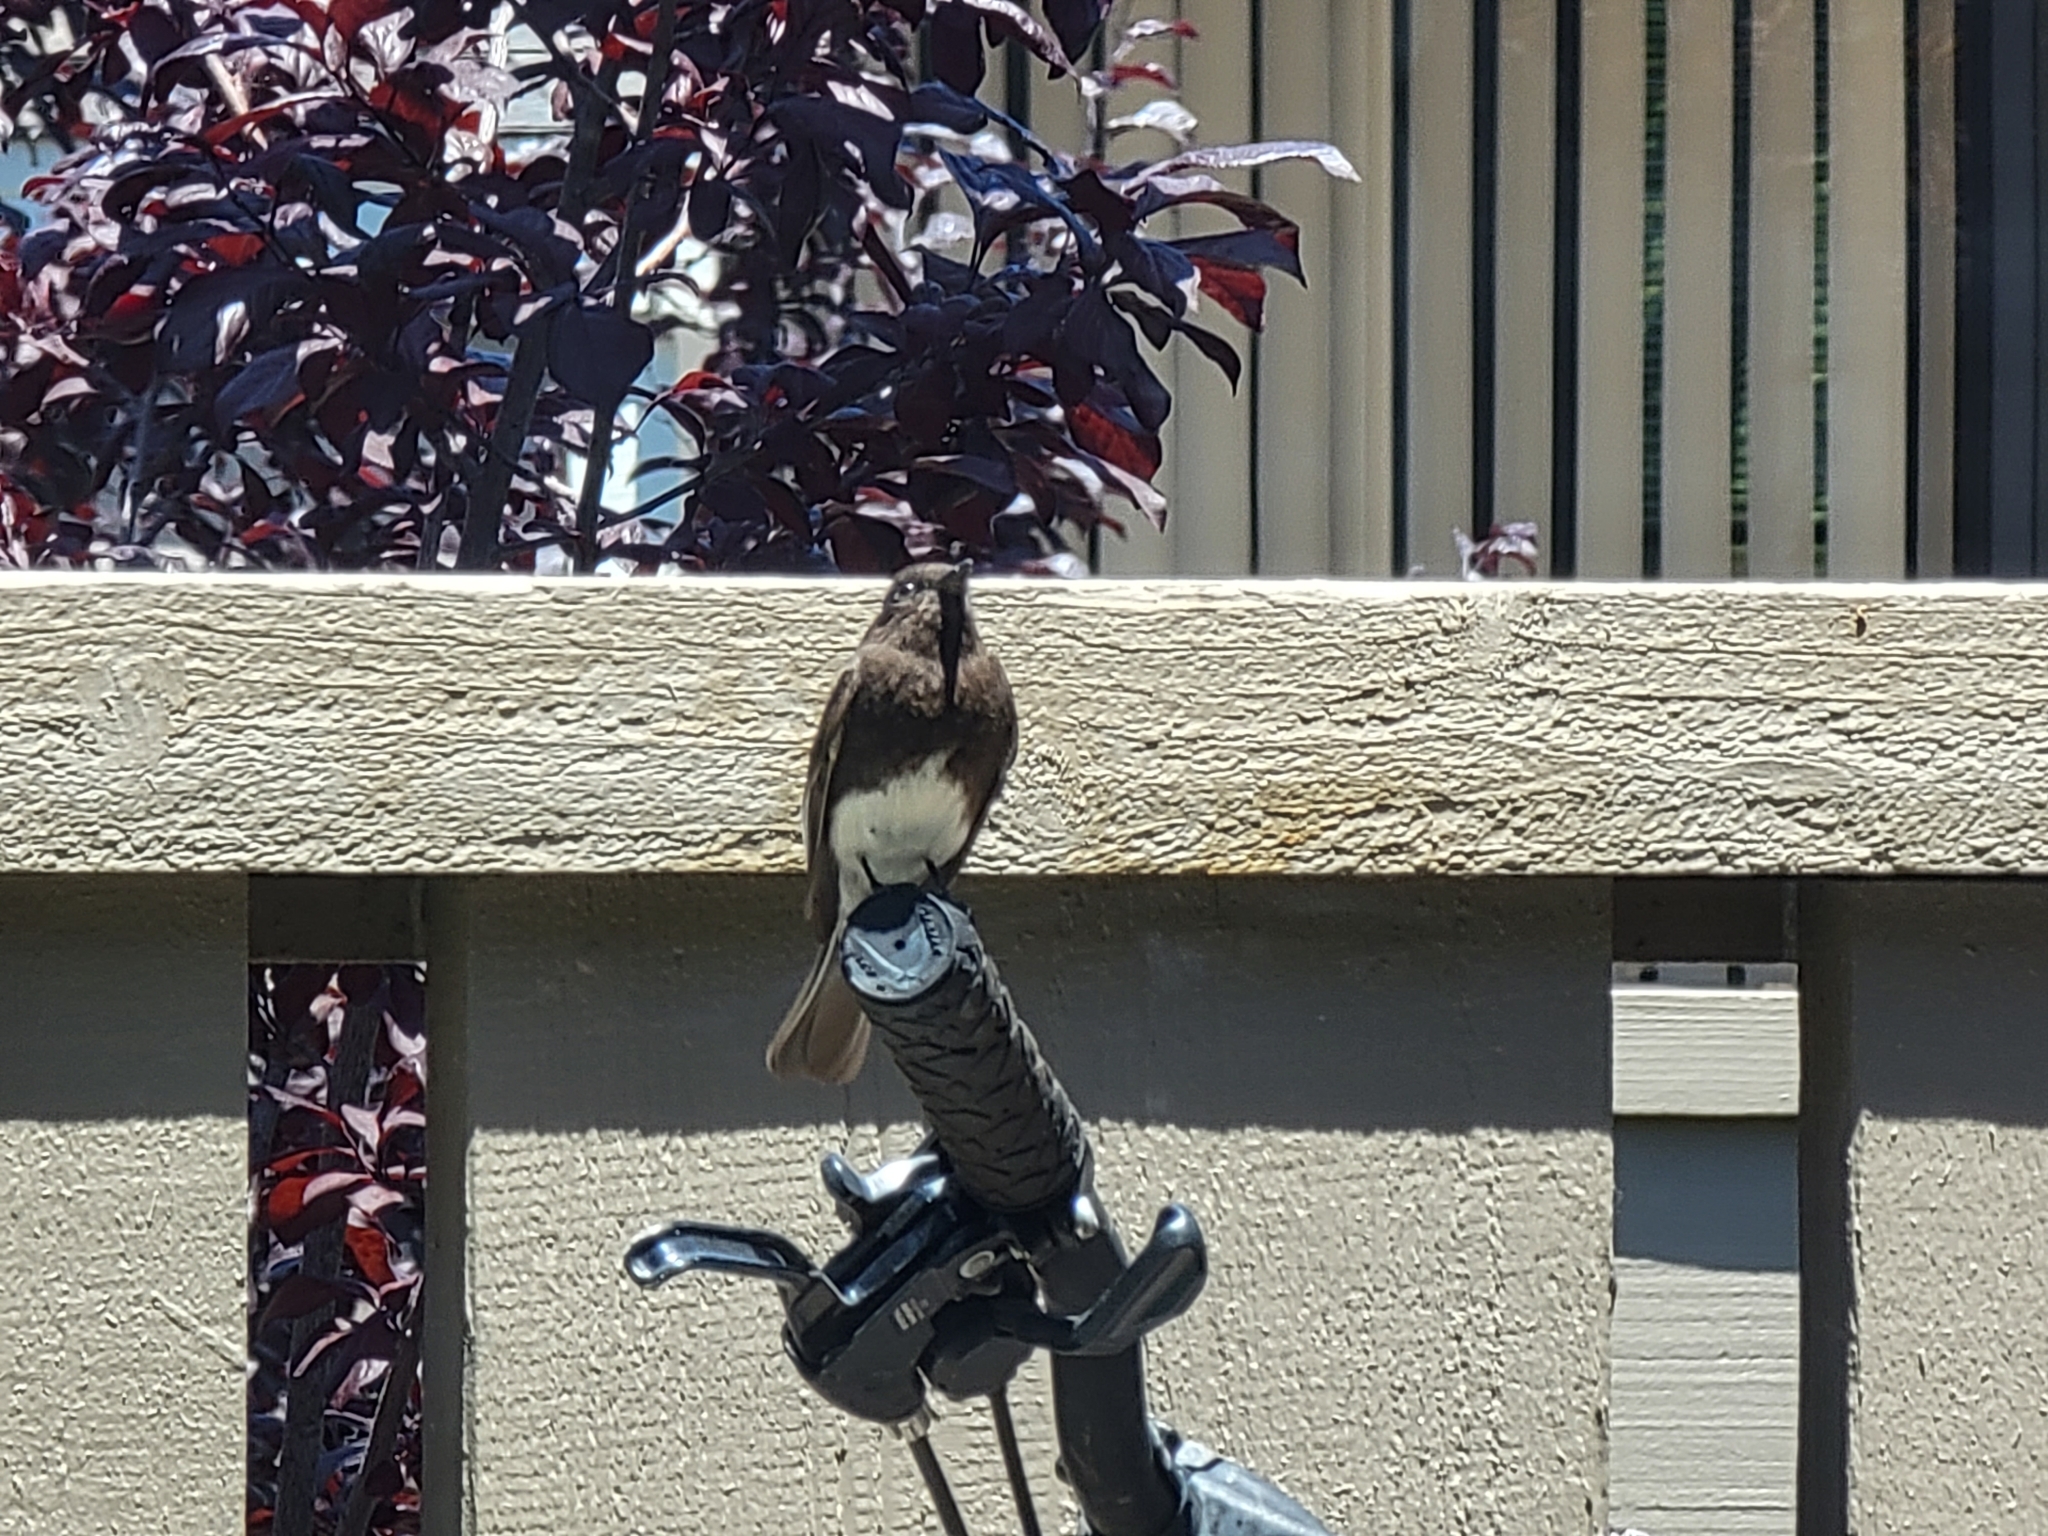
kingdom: Animalia
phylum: Chordata
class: Aves
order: Passeriformes
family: Tyrannidae
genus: Sayornis
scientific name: Sayornis nigricans
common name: Black phoebe
